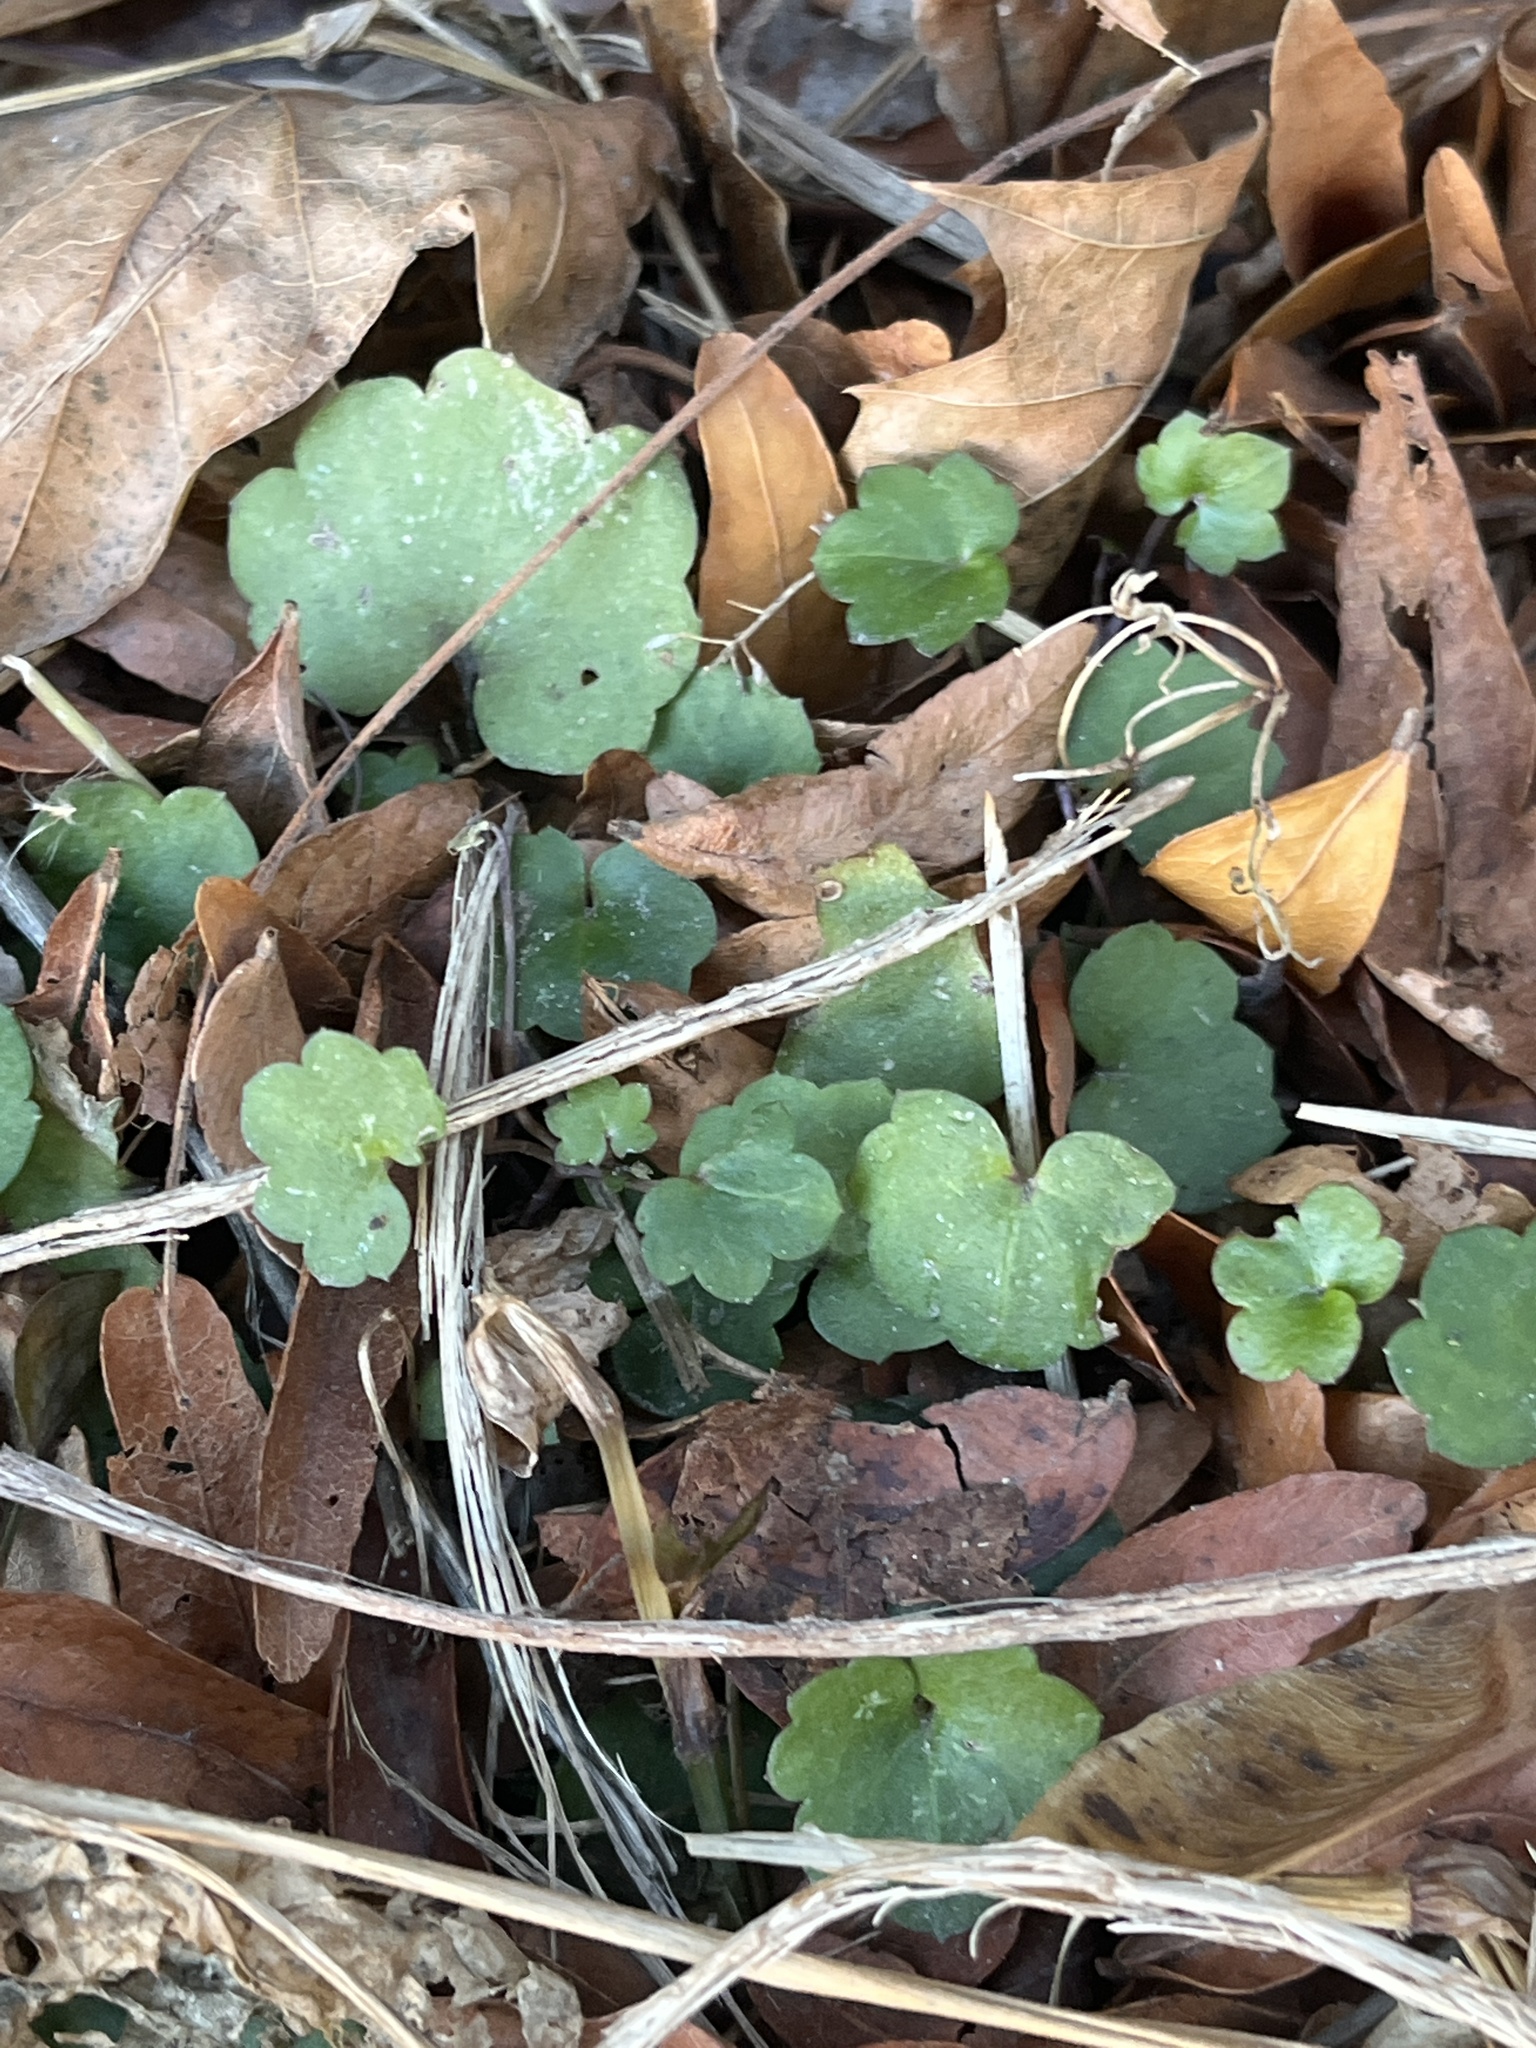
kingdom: Plantae
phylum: Tracheophyta
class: Magnoliopsida
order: Lamiales
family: Lamiaceae
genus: Glechoma
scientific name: Glechoma hederacea
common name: Ground ivy
